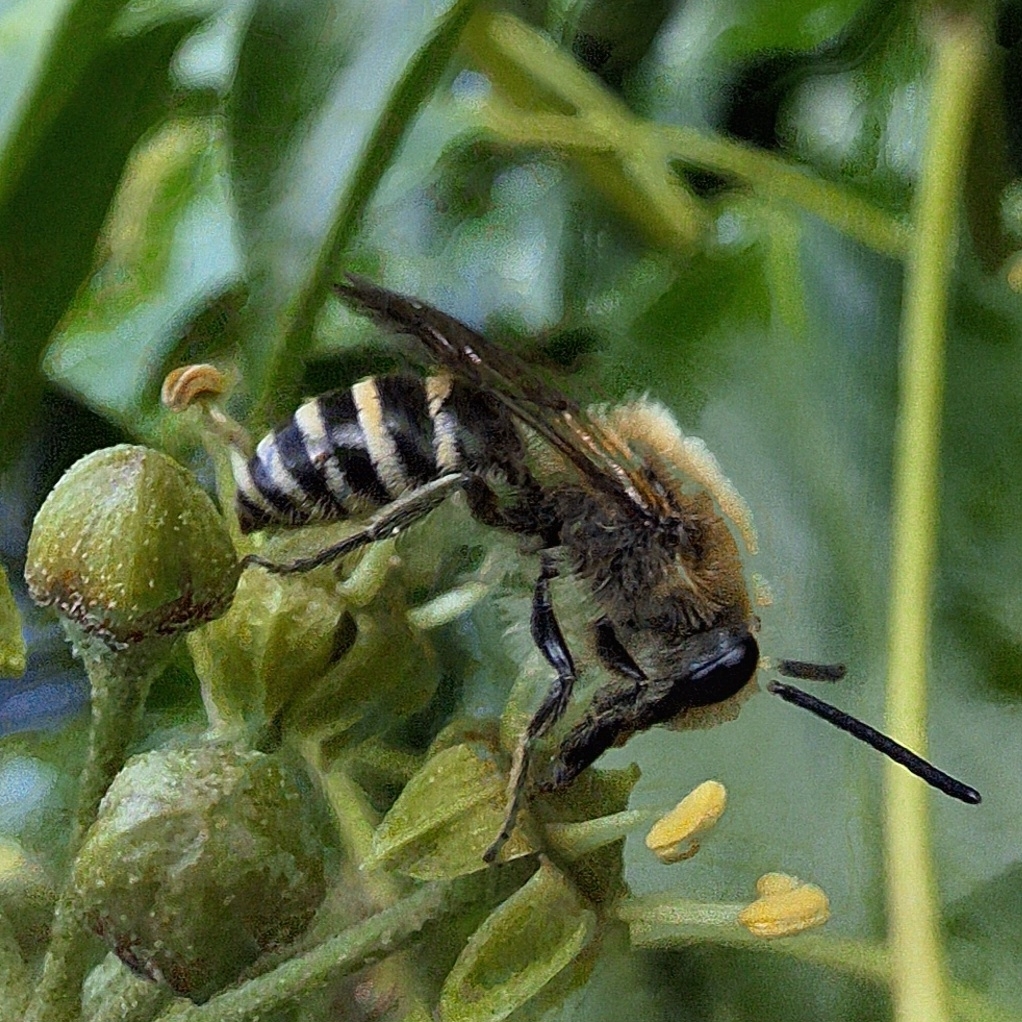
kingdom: Animalia
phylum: Arthropoda
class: Insecta
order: Hymenoptera
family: Colletidae
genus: Colletes
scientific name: Colletes hederae
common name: Ivy bee
